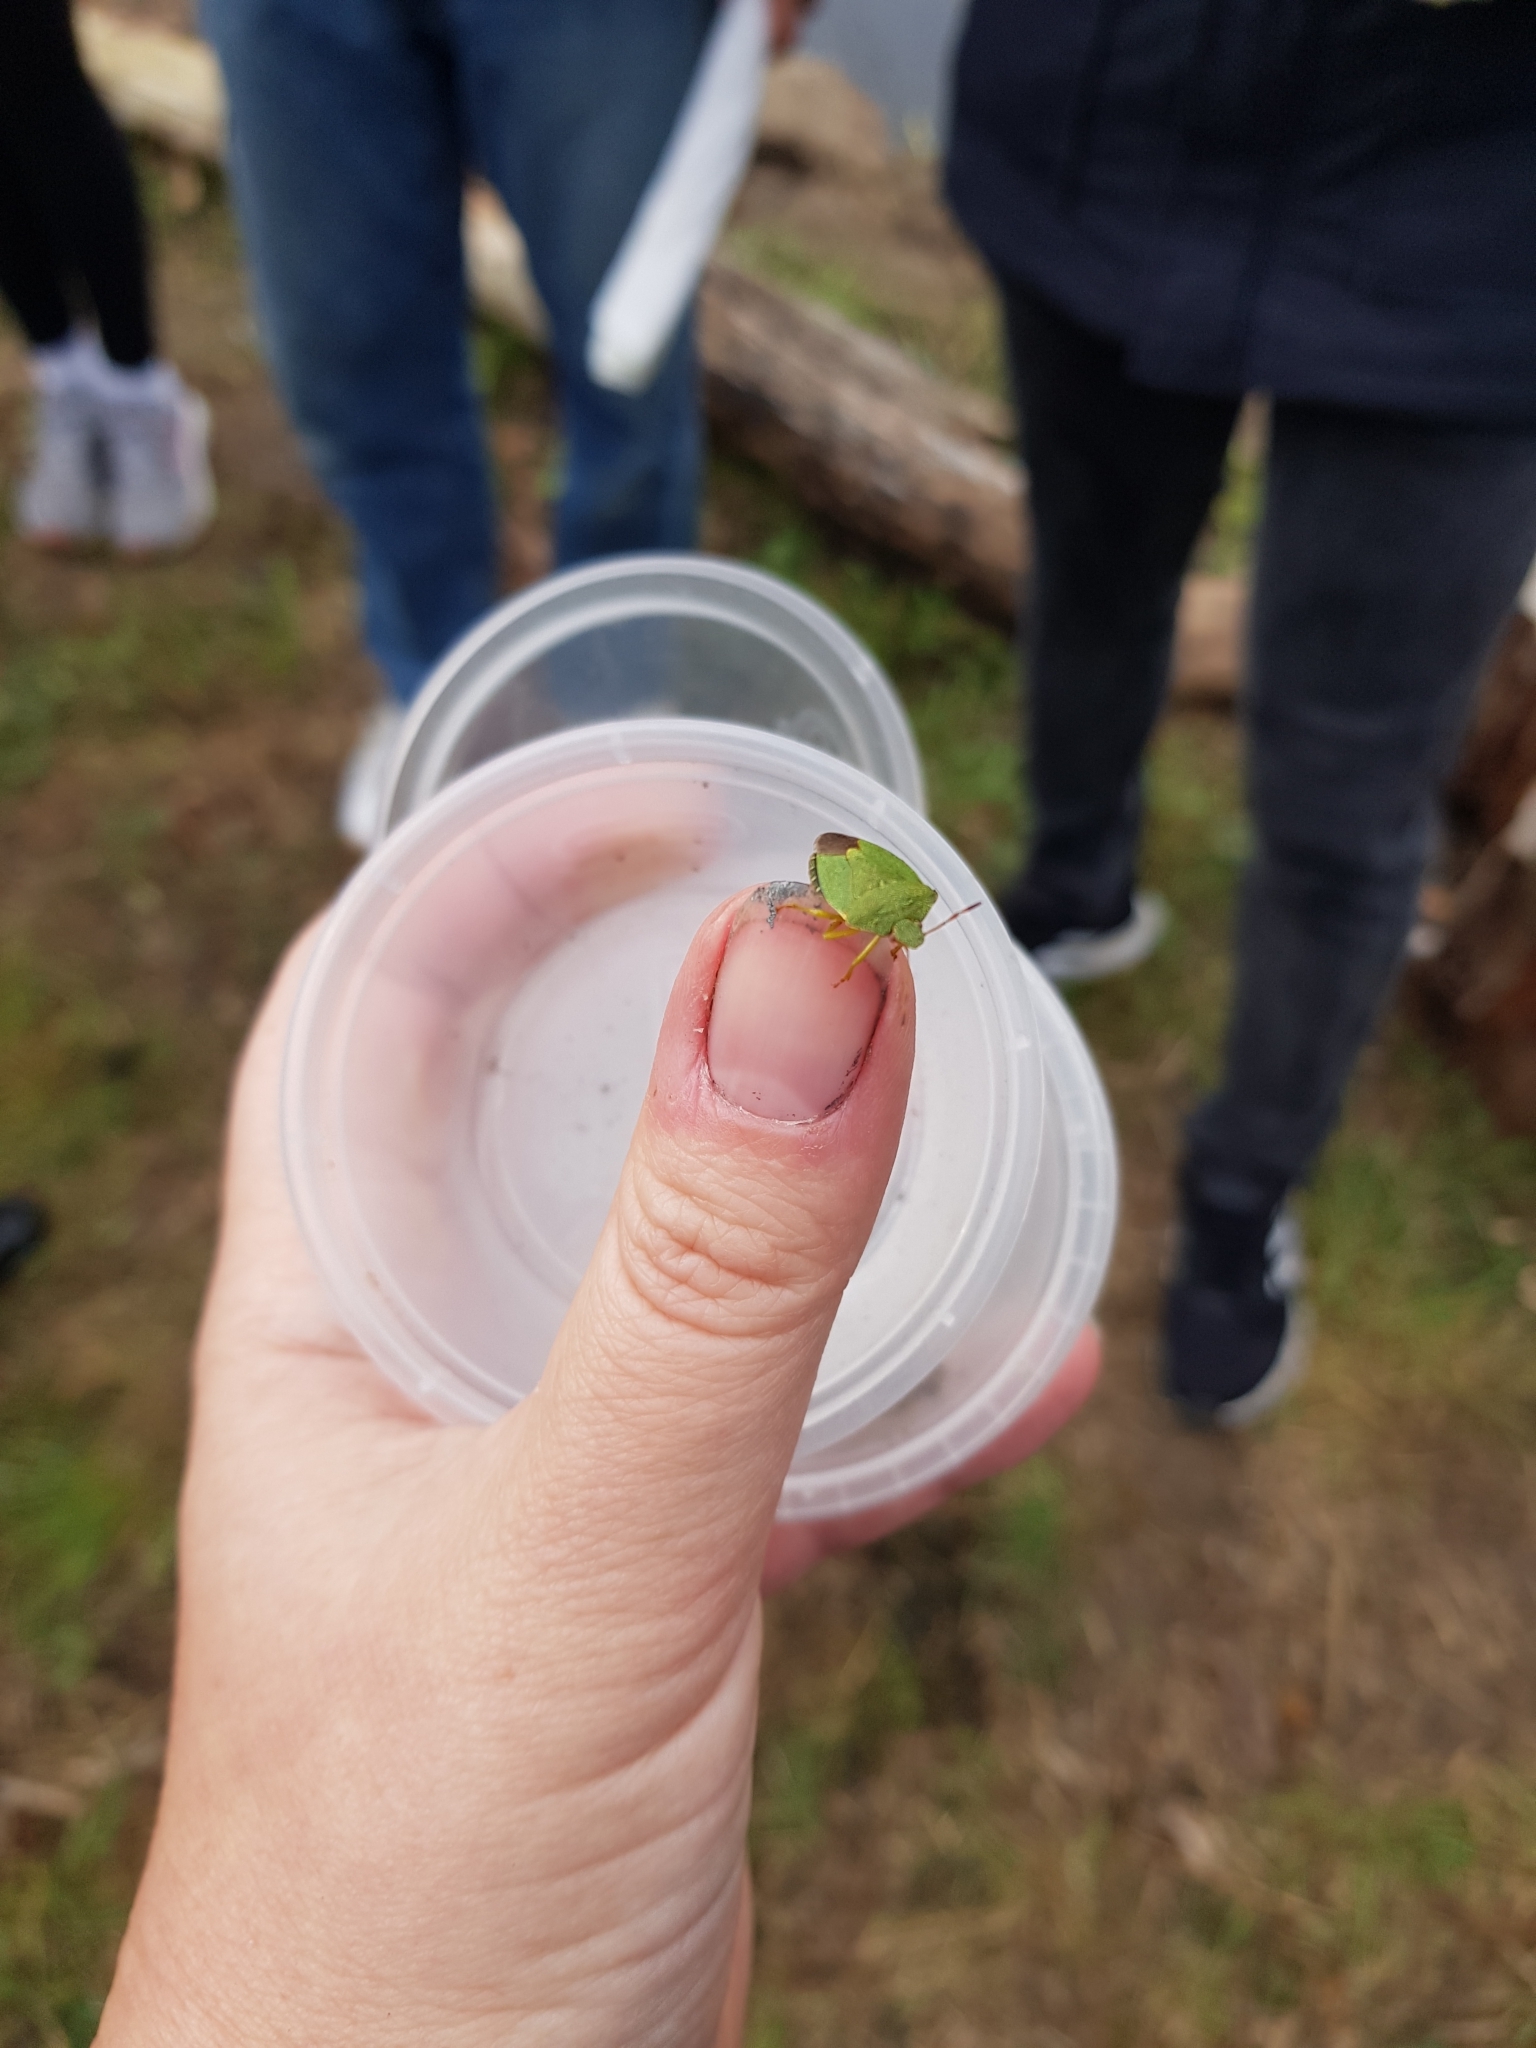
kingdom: Animalia
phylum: Arthropoda
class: Insecta
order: Hemiptera
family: Pentatomidae
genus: Palomena
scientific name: Palomena prasina
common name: Green shieldbug
